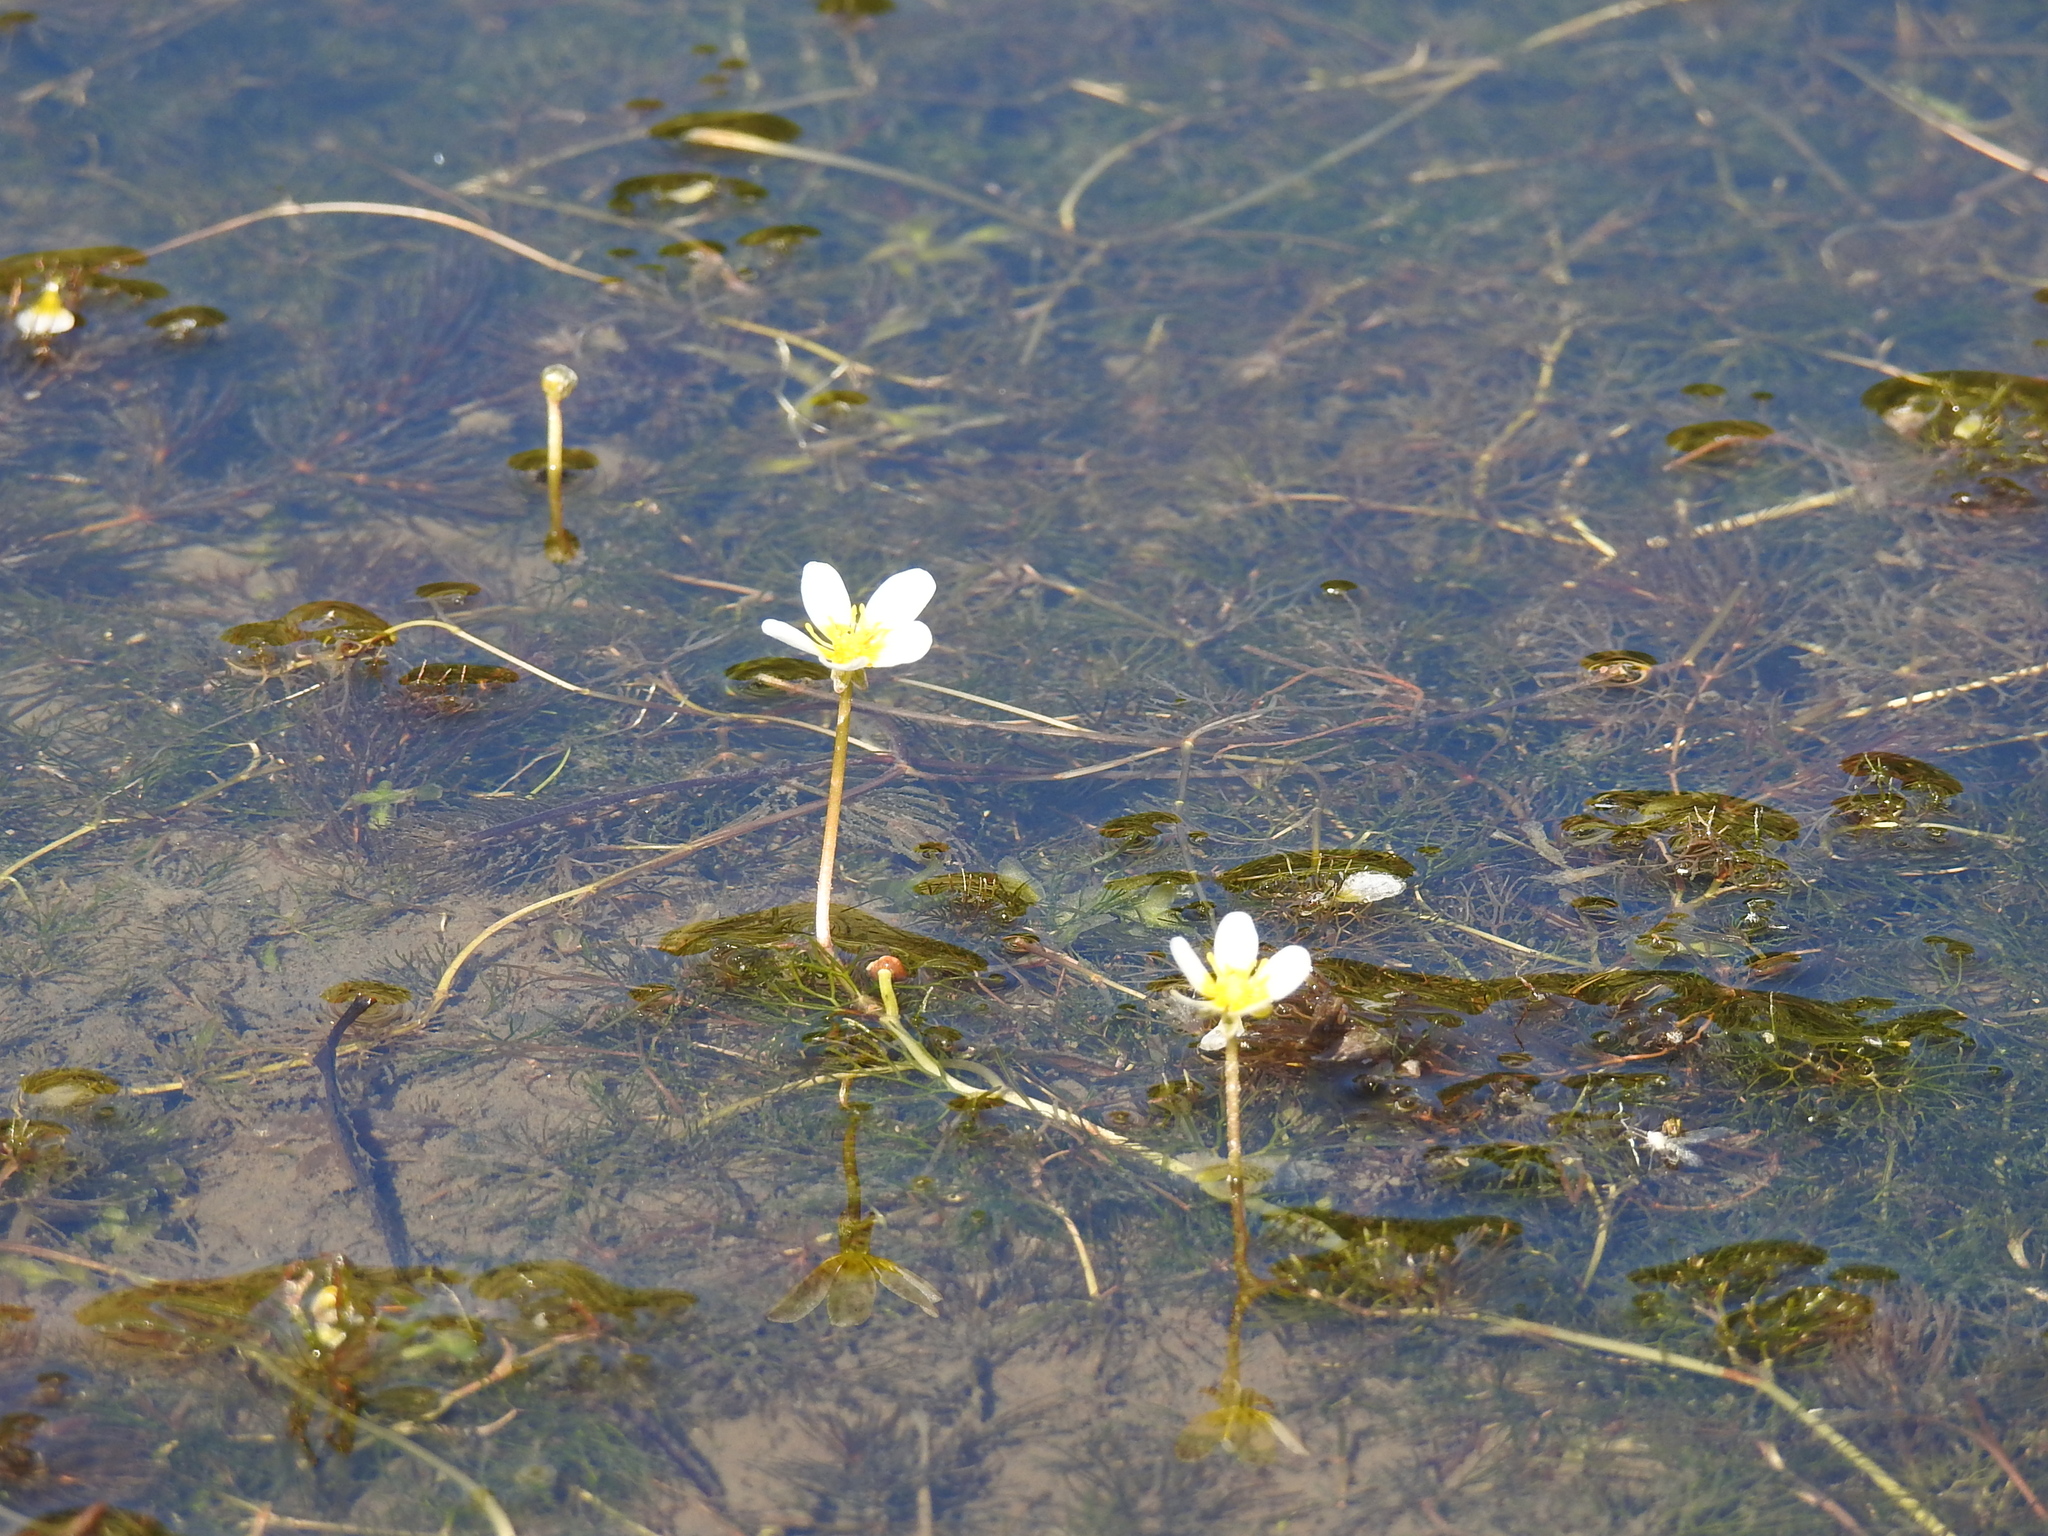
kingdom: Plantae
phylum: Tracheophyta
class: Magnoliopsida
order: Ranunculales
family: Ranunculaceae
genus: Ranunculus
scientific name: Ranunculus trichophyllus
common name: Thread-leaved water-crowfoot
